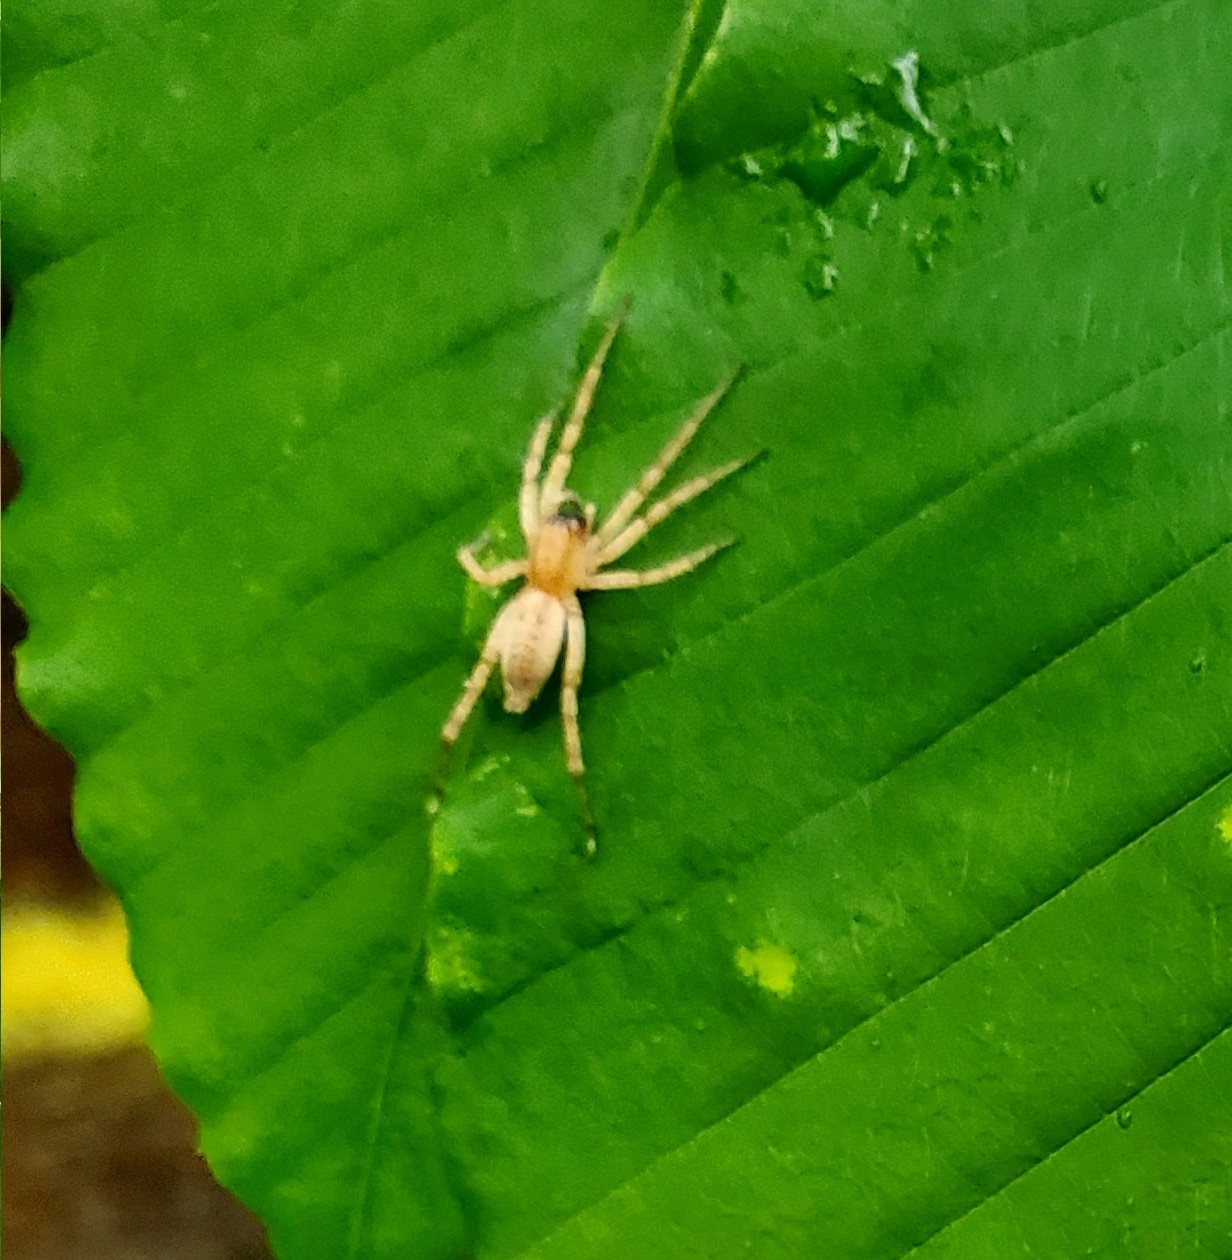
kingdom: Animalia
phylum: Arthropoda
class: Arachnida
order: Araneae
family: Anyphaenidae
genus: Hibana
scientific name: Hibana gracilis
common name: Garden ghost spider
